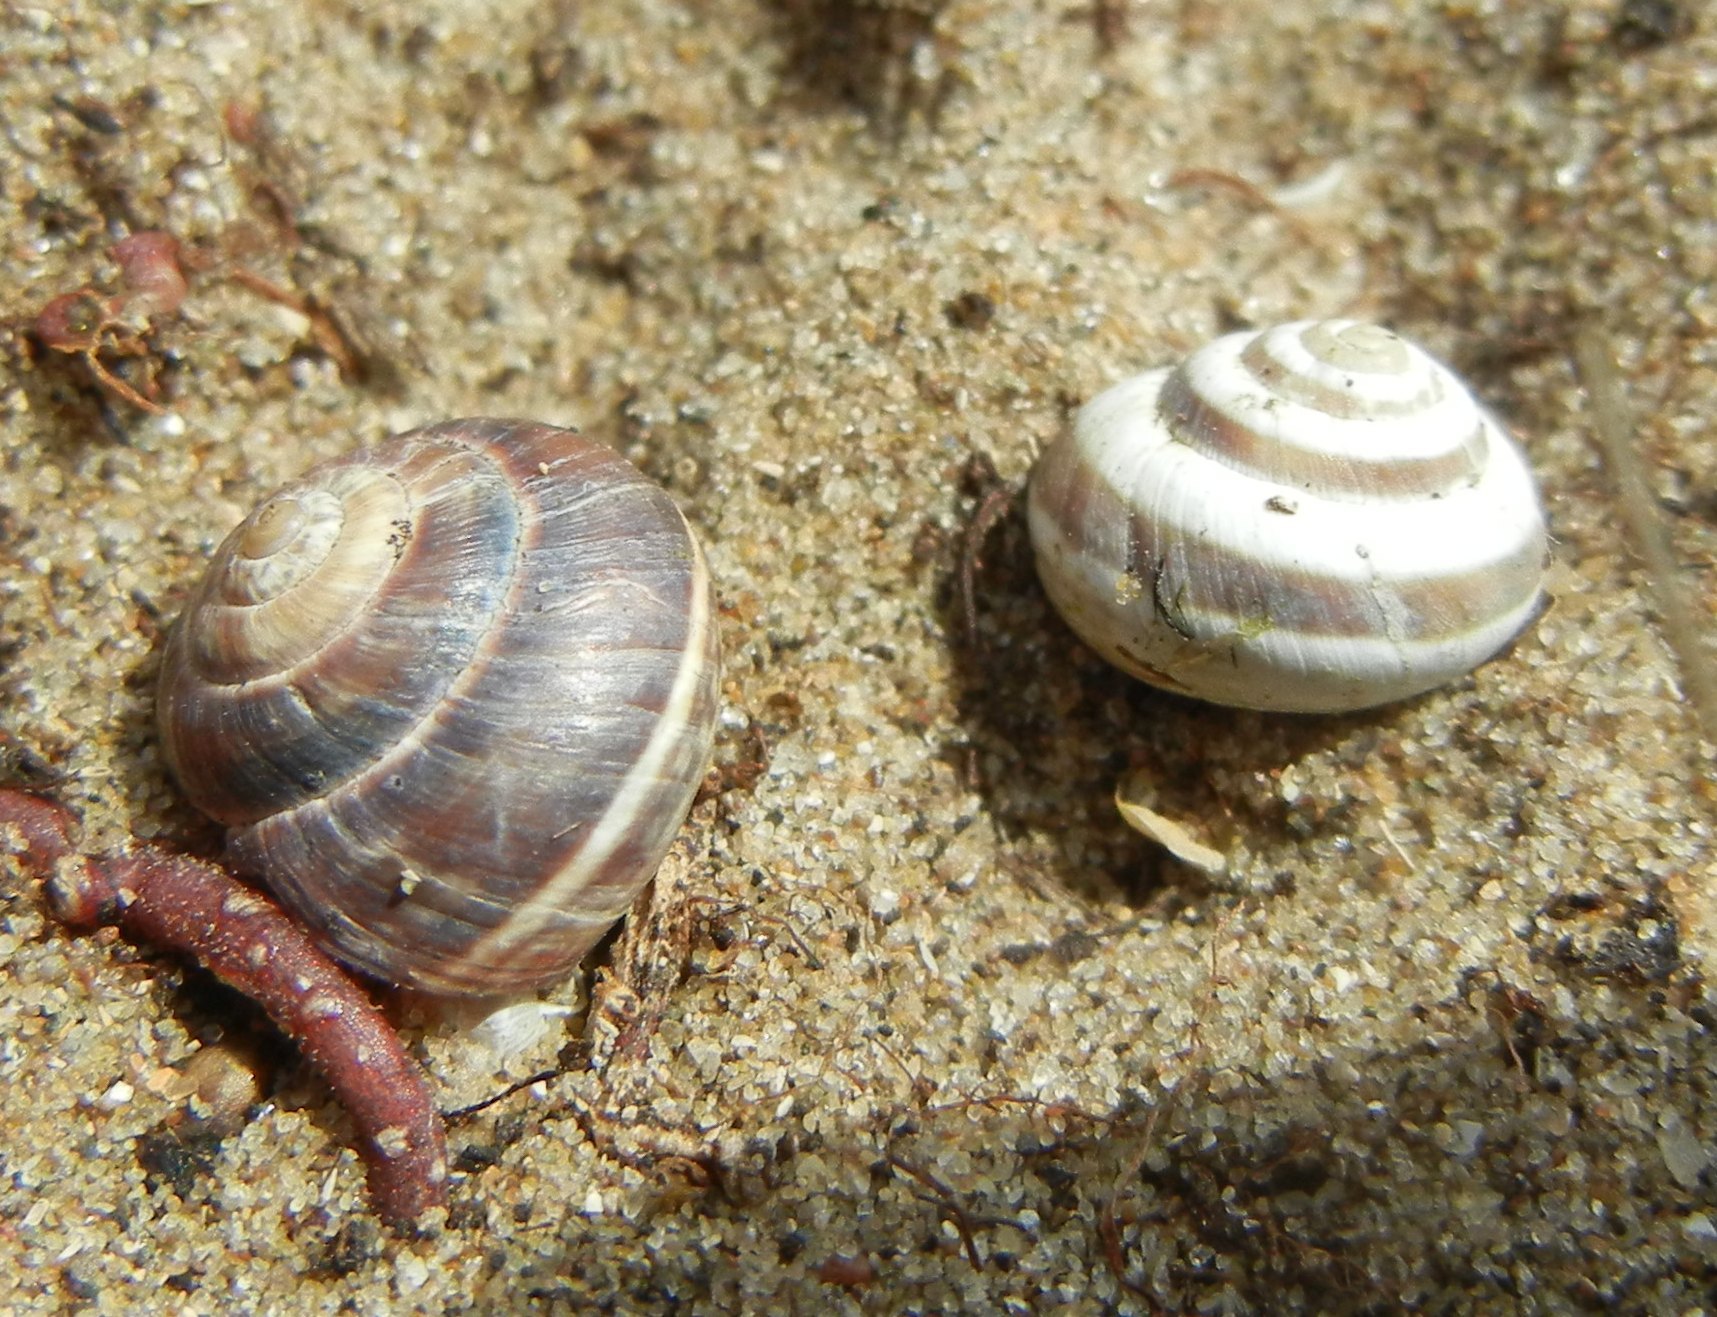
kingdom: Animalia
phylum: Mollusca
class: Gastropoda
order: Stylommatophora
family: Geomitridae
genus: Cernuella
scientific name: Cernuella virgata
